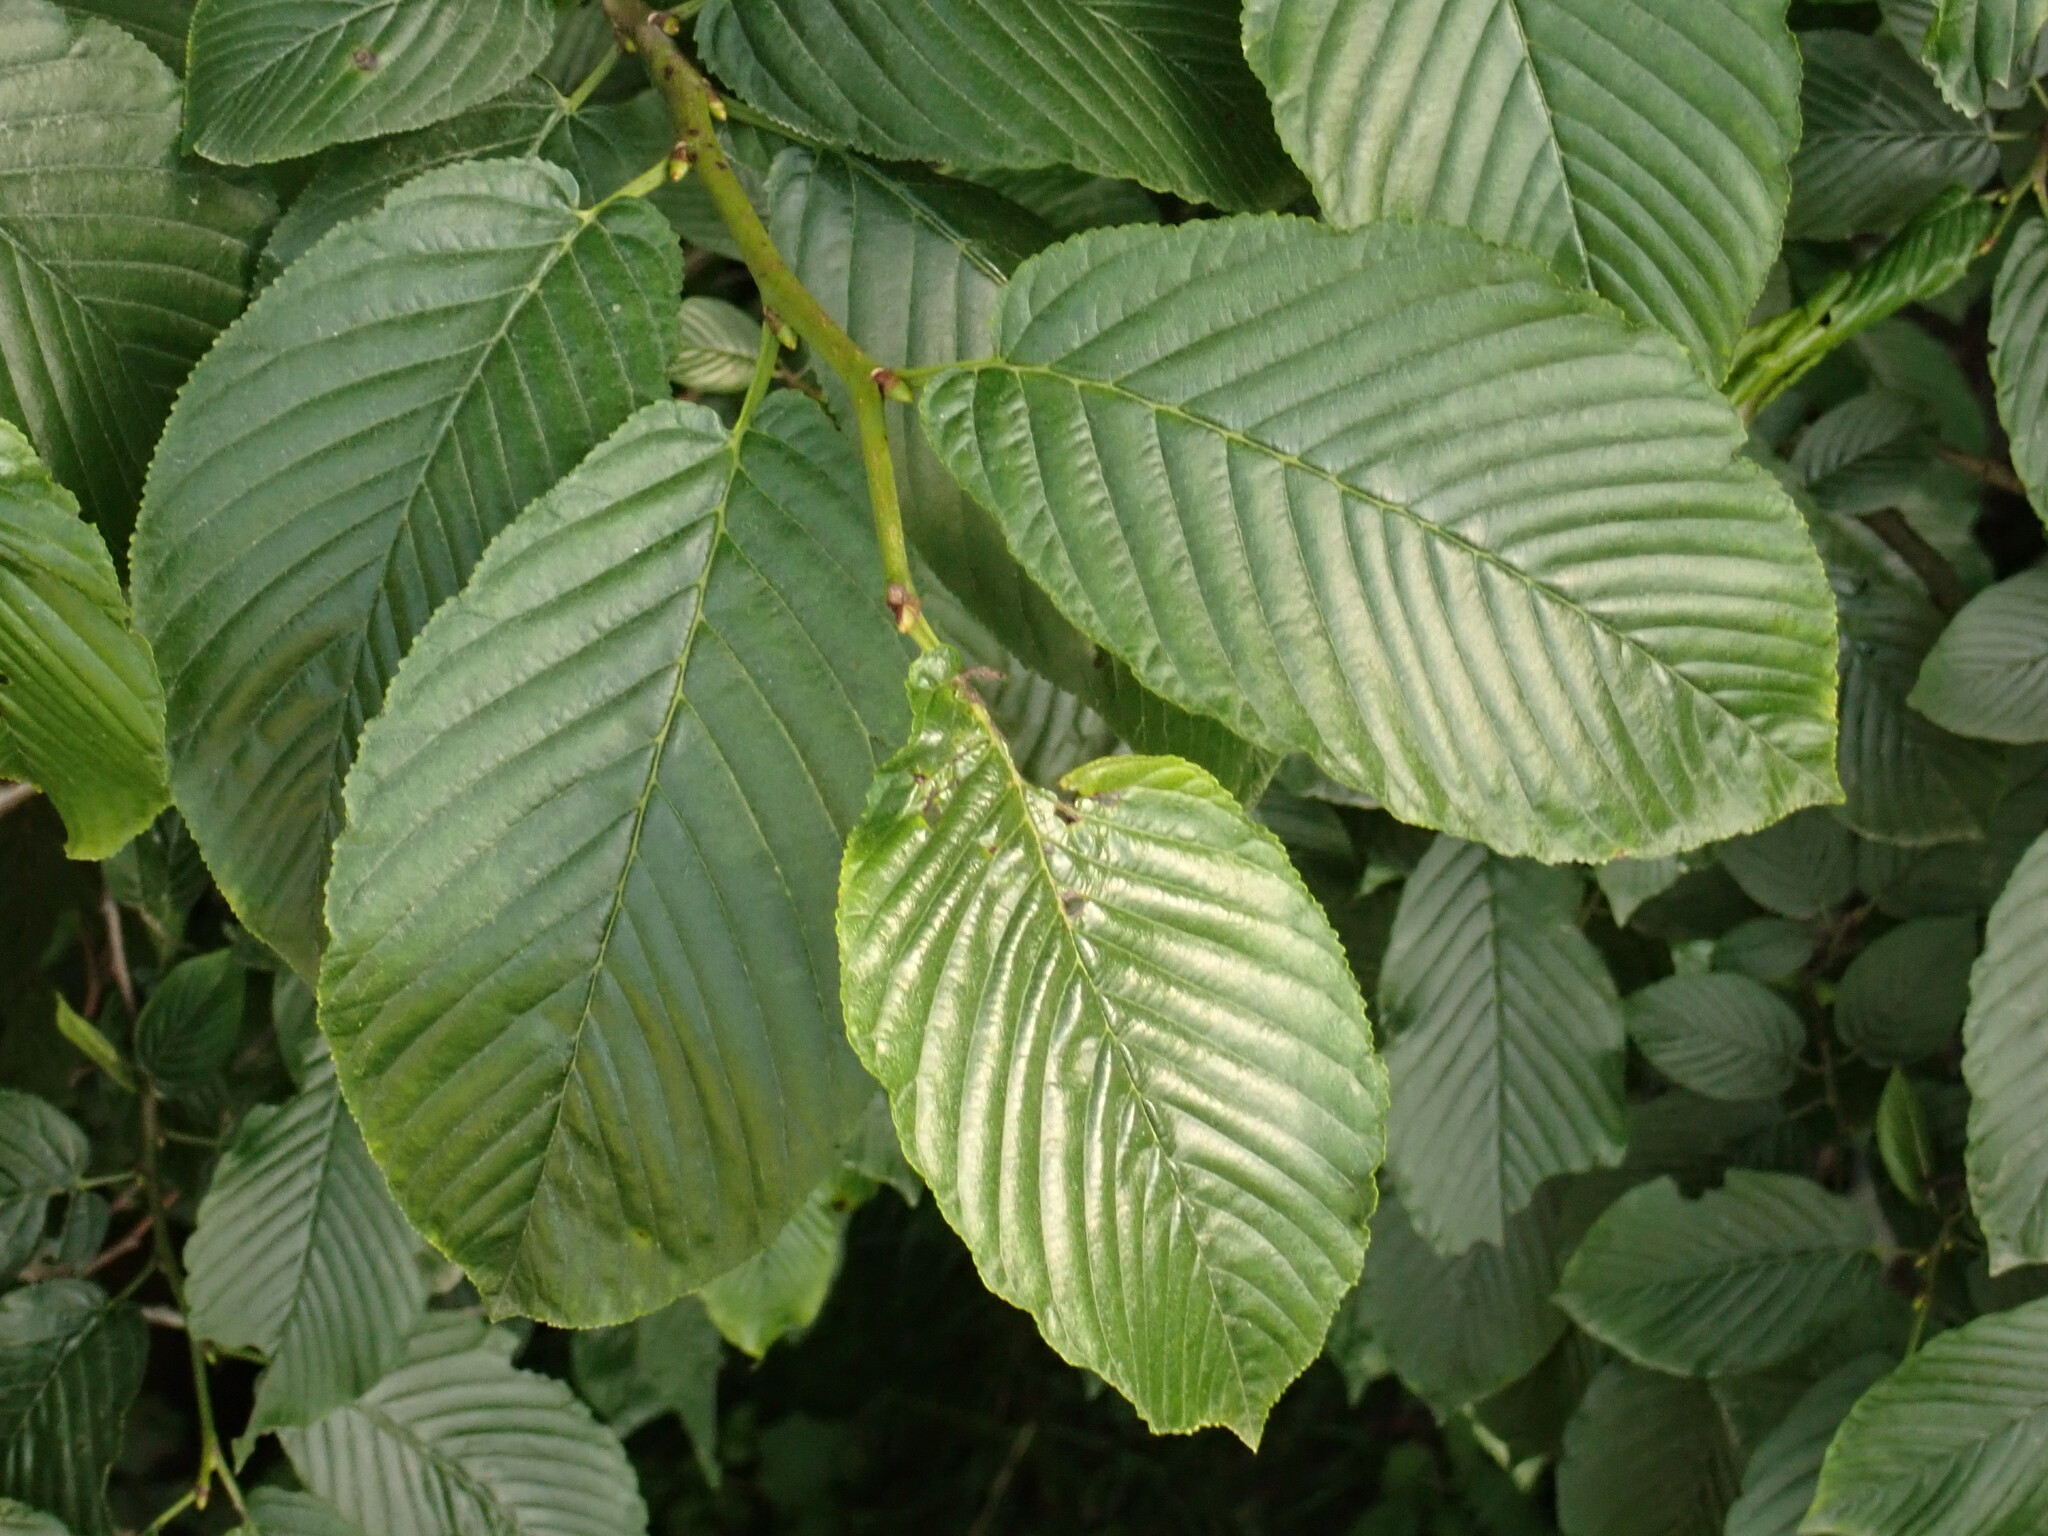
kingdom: Plantae
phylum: Tracheophyta
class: Magnoliopsida
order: Rosales
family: Rhamnaceae
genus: Atadinus
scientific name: Atadinus fallax
